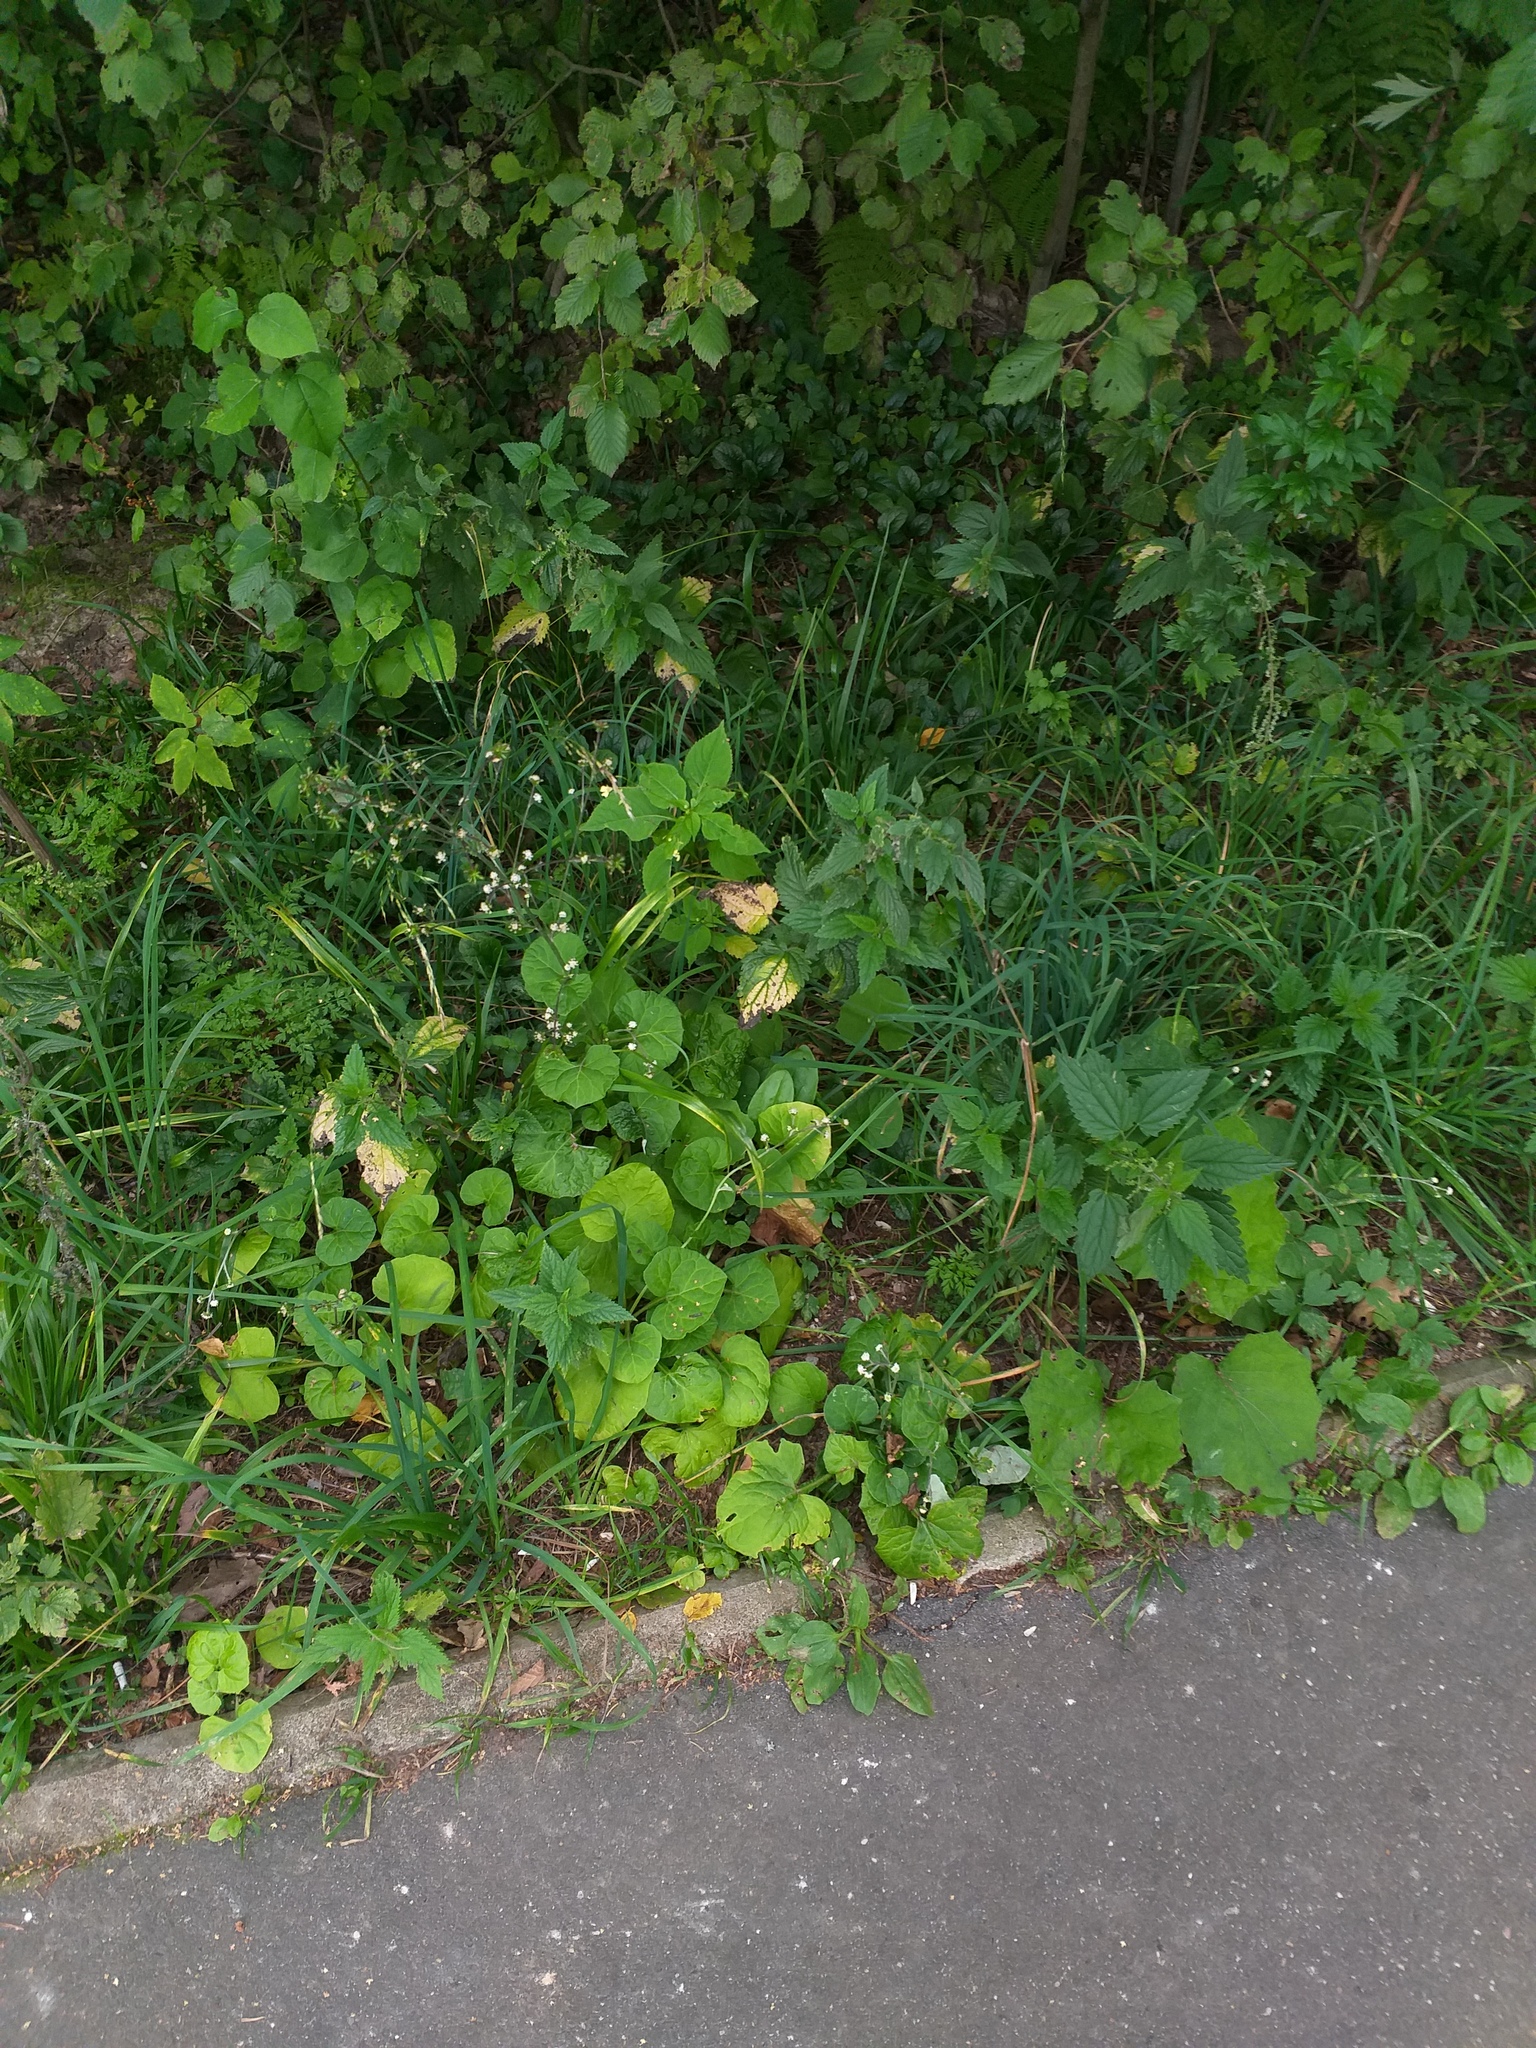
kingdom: Plantae
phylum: Tracheophyta
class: Magnoliopsida
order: Asterales
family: Asteraceae
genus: Adenocaulon
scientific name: Adenocaulon himalaicum
